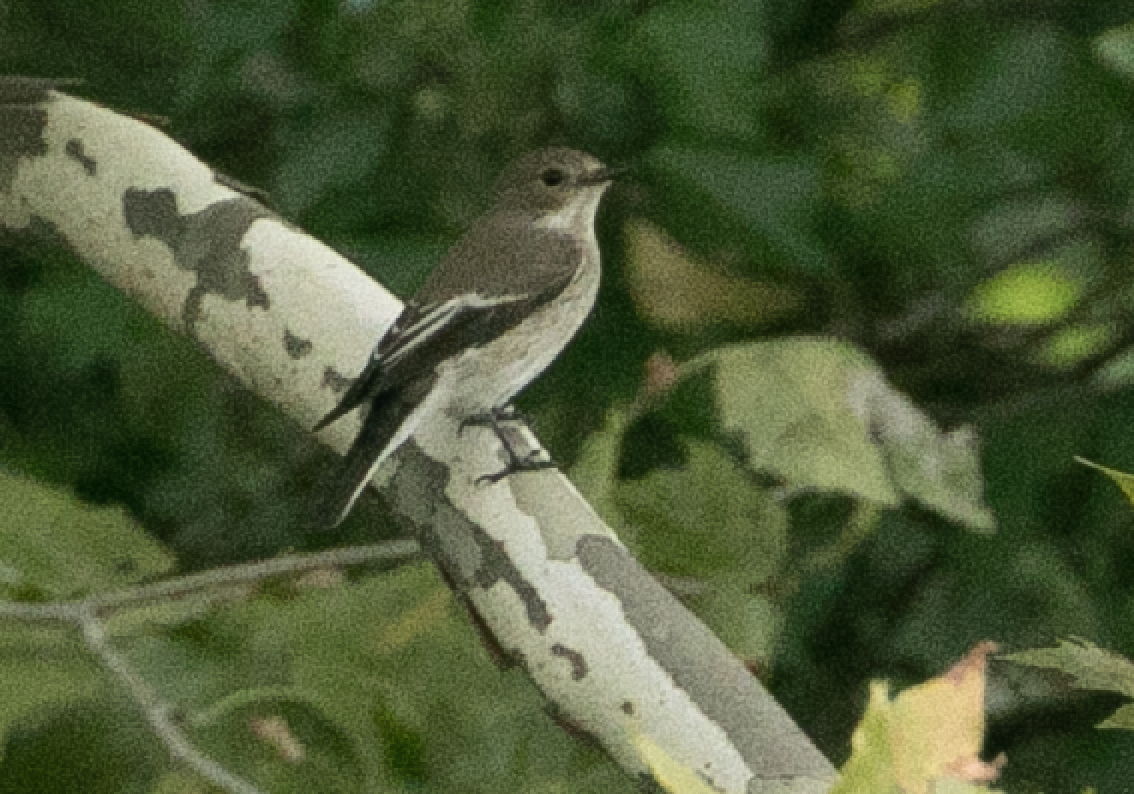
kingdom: Animalia
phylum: Chordata
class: Aves
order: Passeriformes
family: Muscicapidae
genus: Ficedula
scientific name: Ficedula hypoleuca
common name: European pied flycatcher
